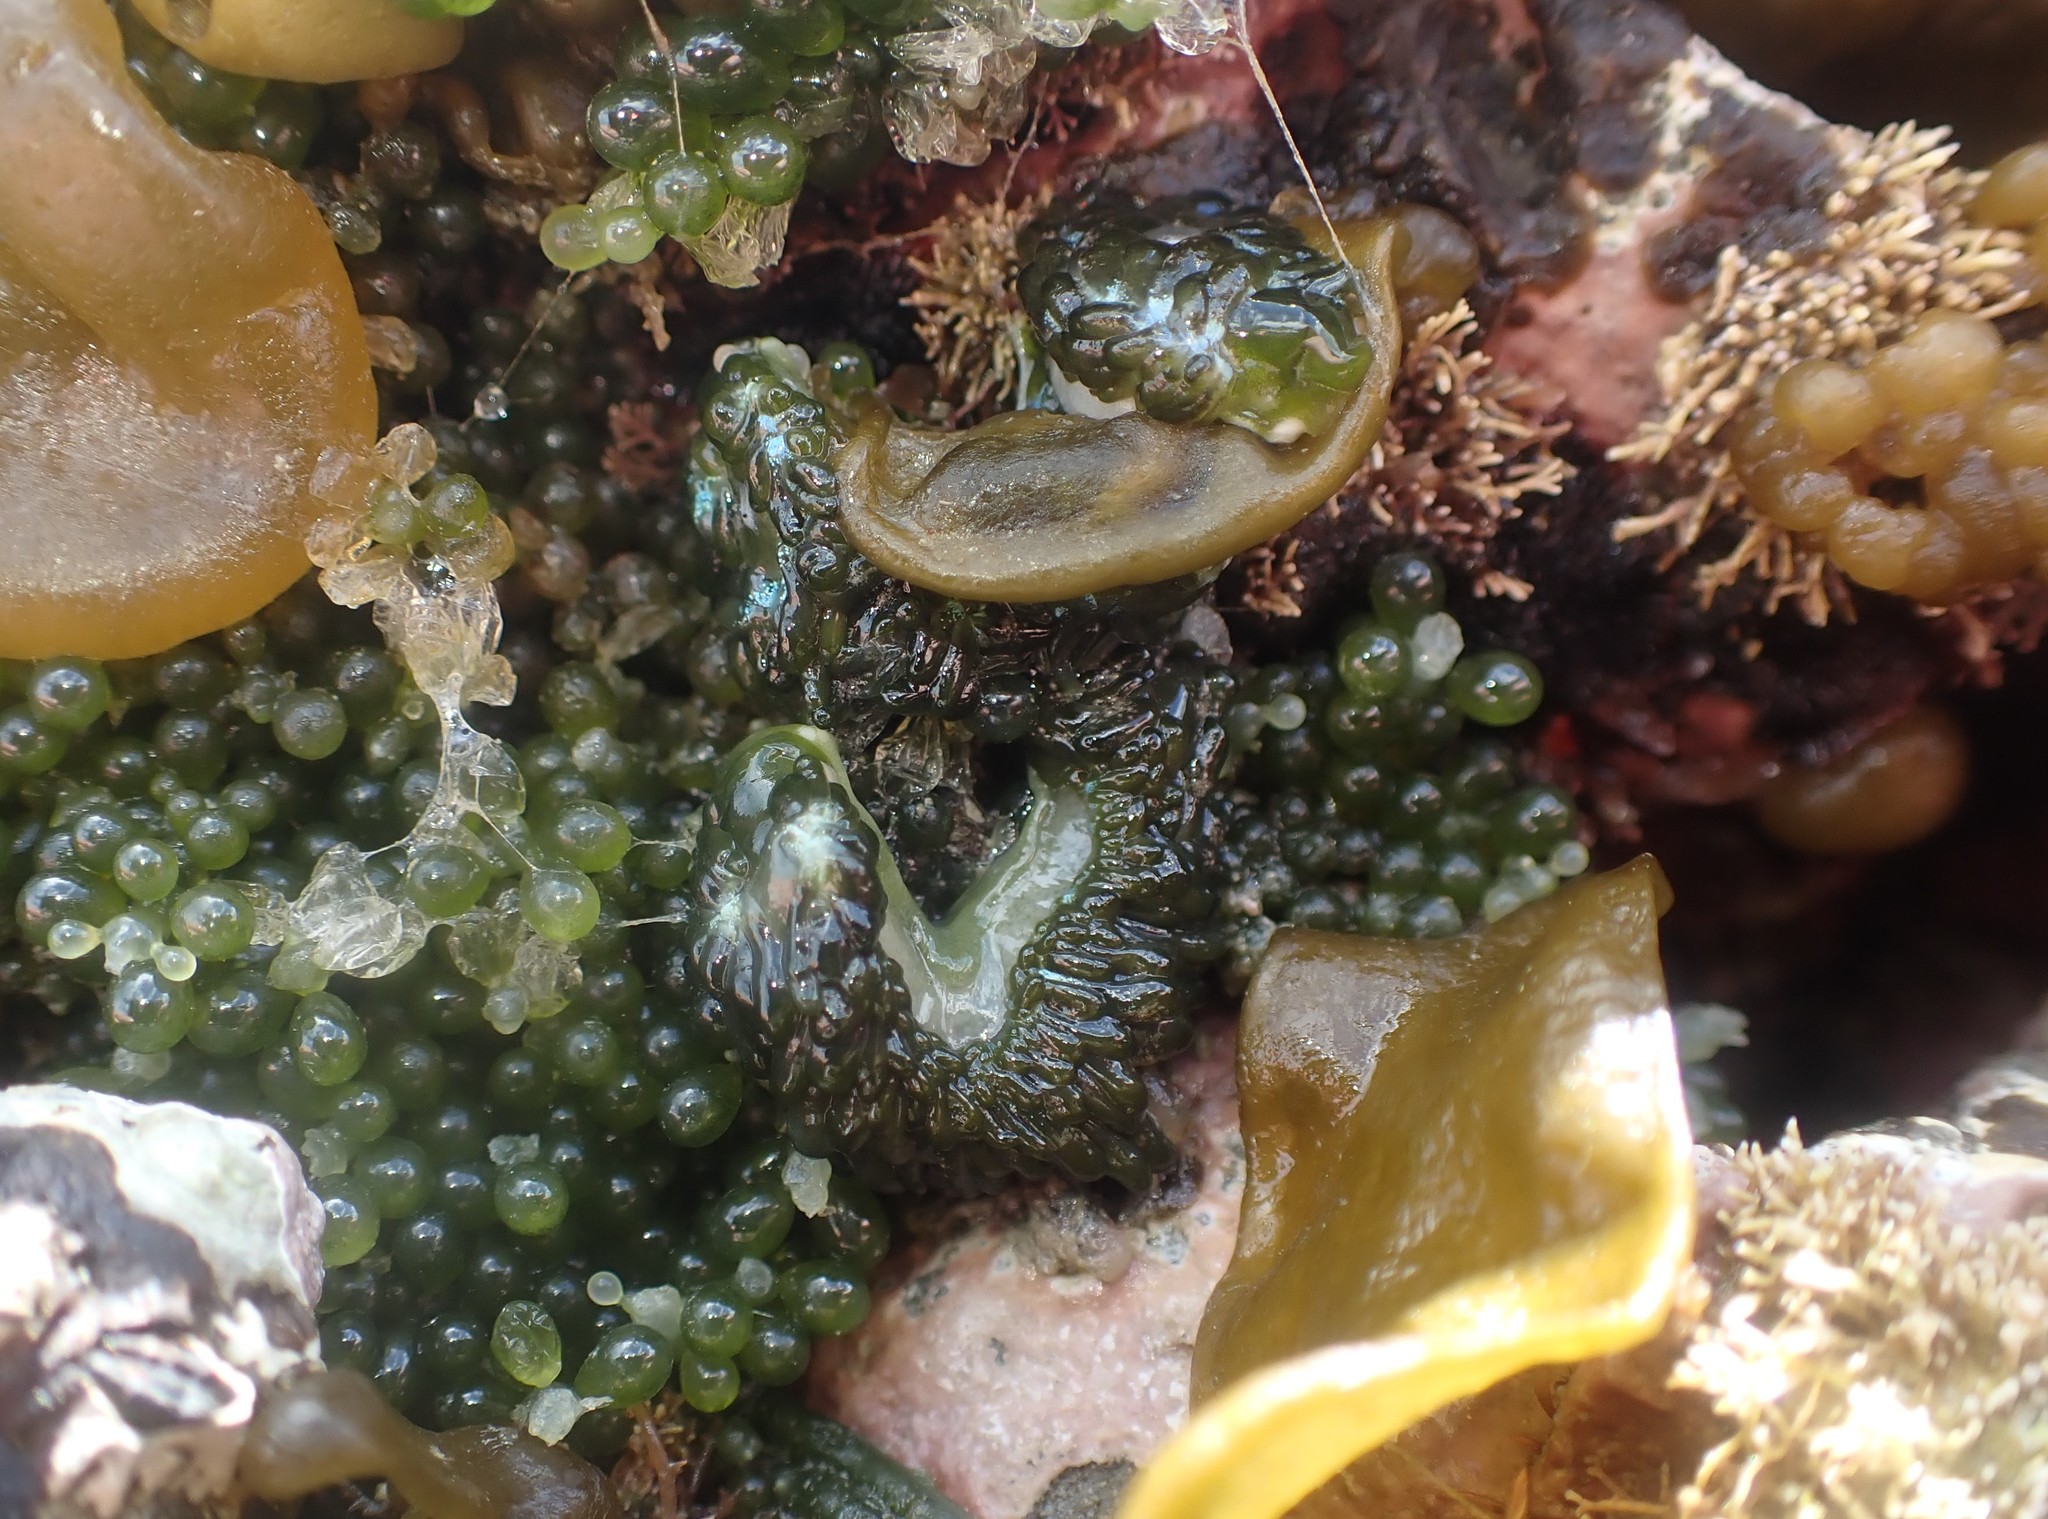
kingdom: Animalia
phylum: Mollusca
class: Gastropoda
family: Limapontiidae
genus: Sacoproteus
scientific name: Sacoproteus smaragdinus
